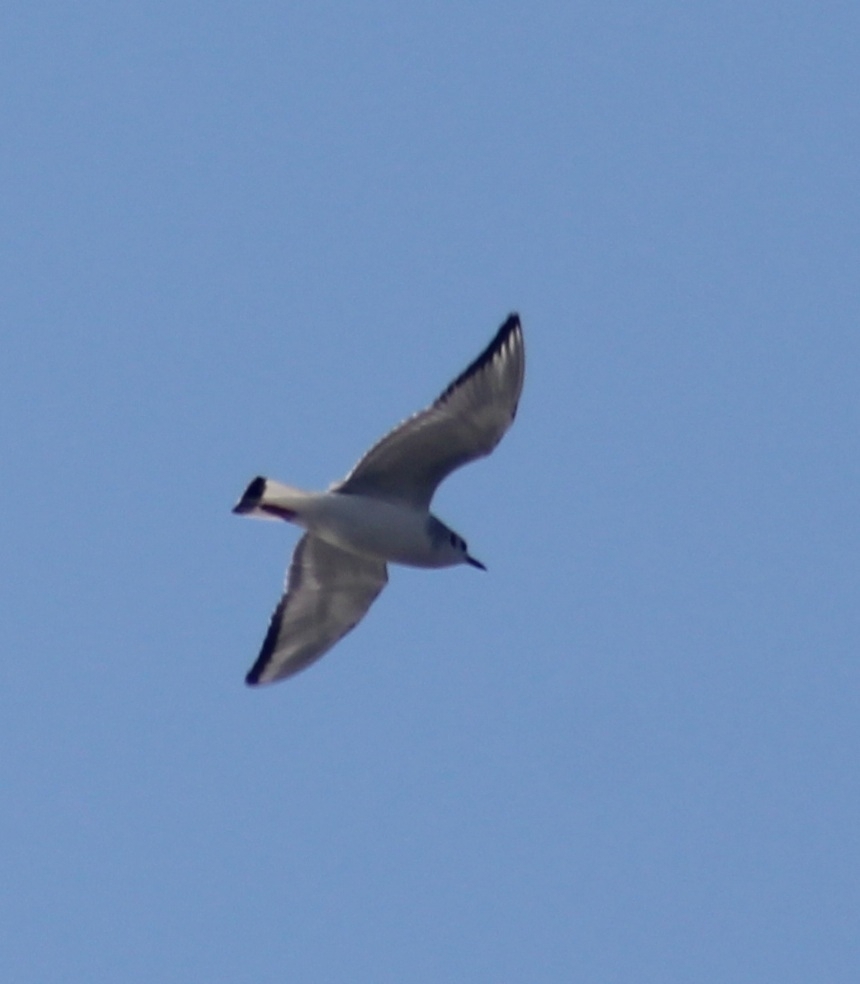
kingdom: Animalia
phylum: Chordata
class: Aves
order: Charadriiformes
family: Laridae
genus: Chroicocephalus
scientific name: Chroicocephalus philadelphia
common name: Bonaparte's gull
